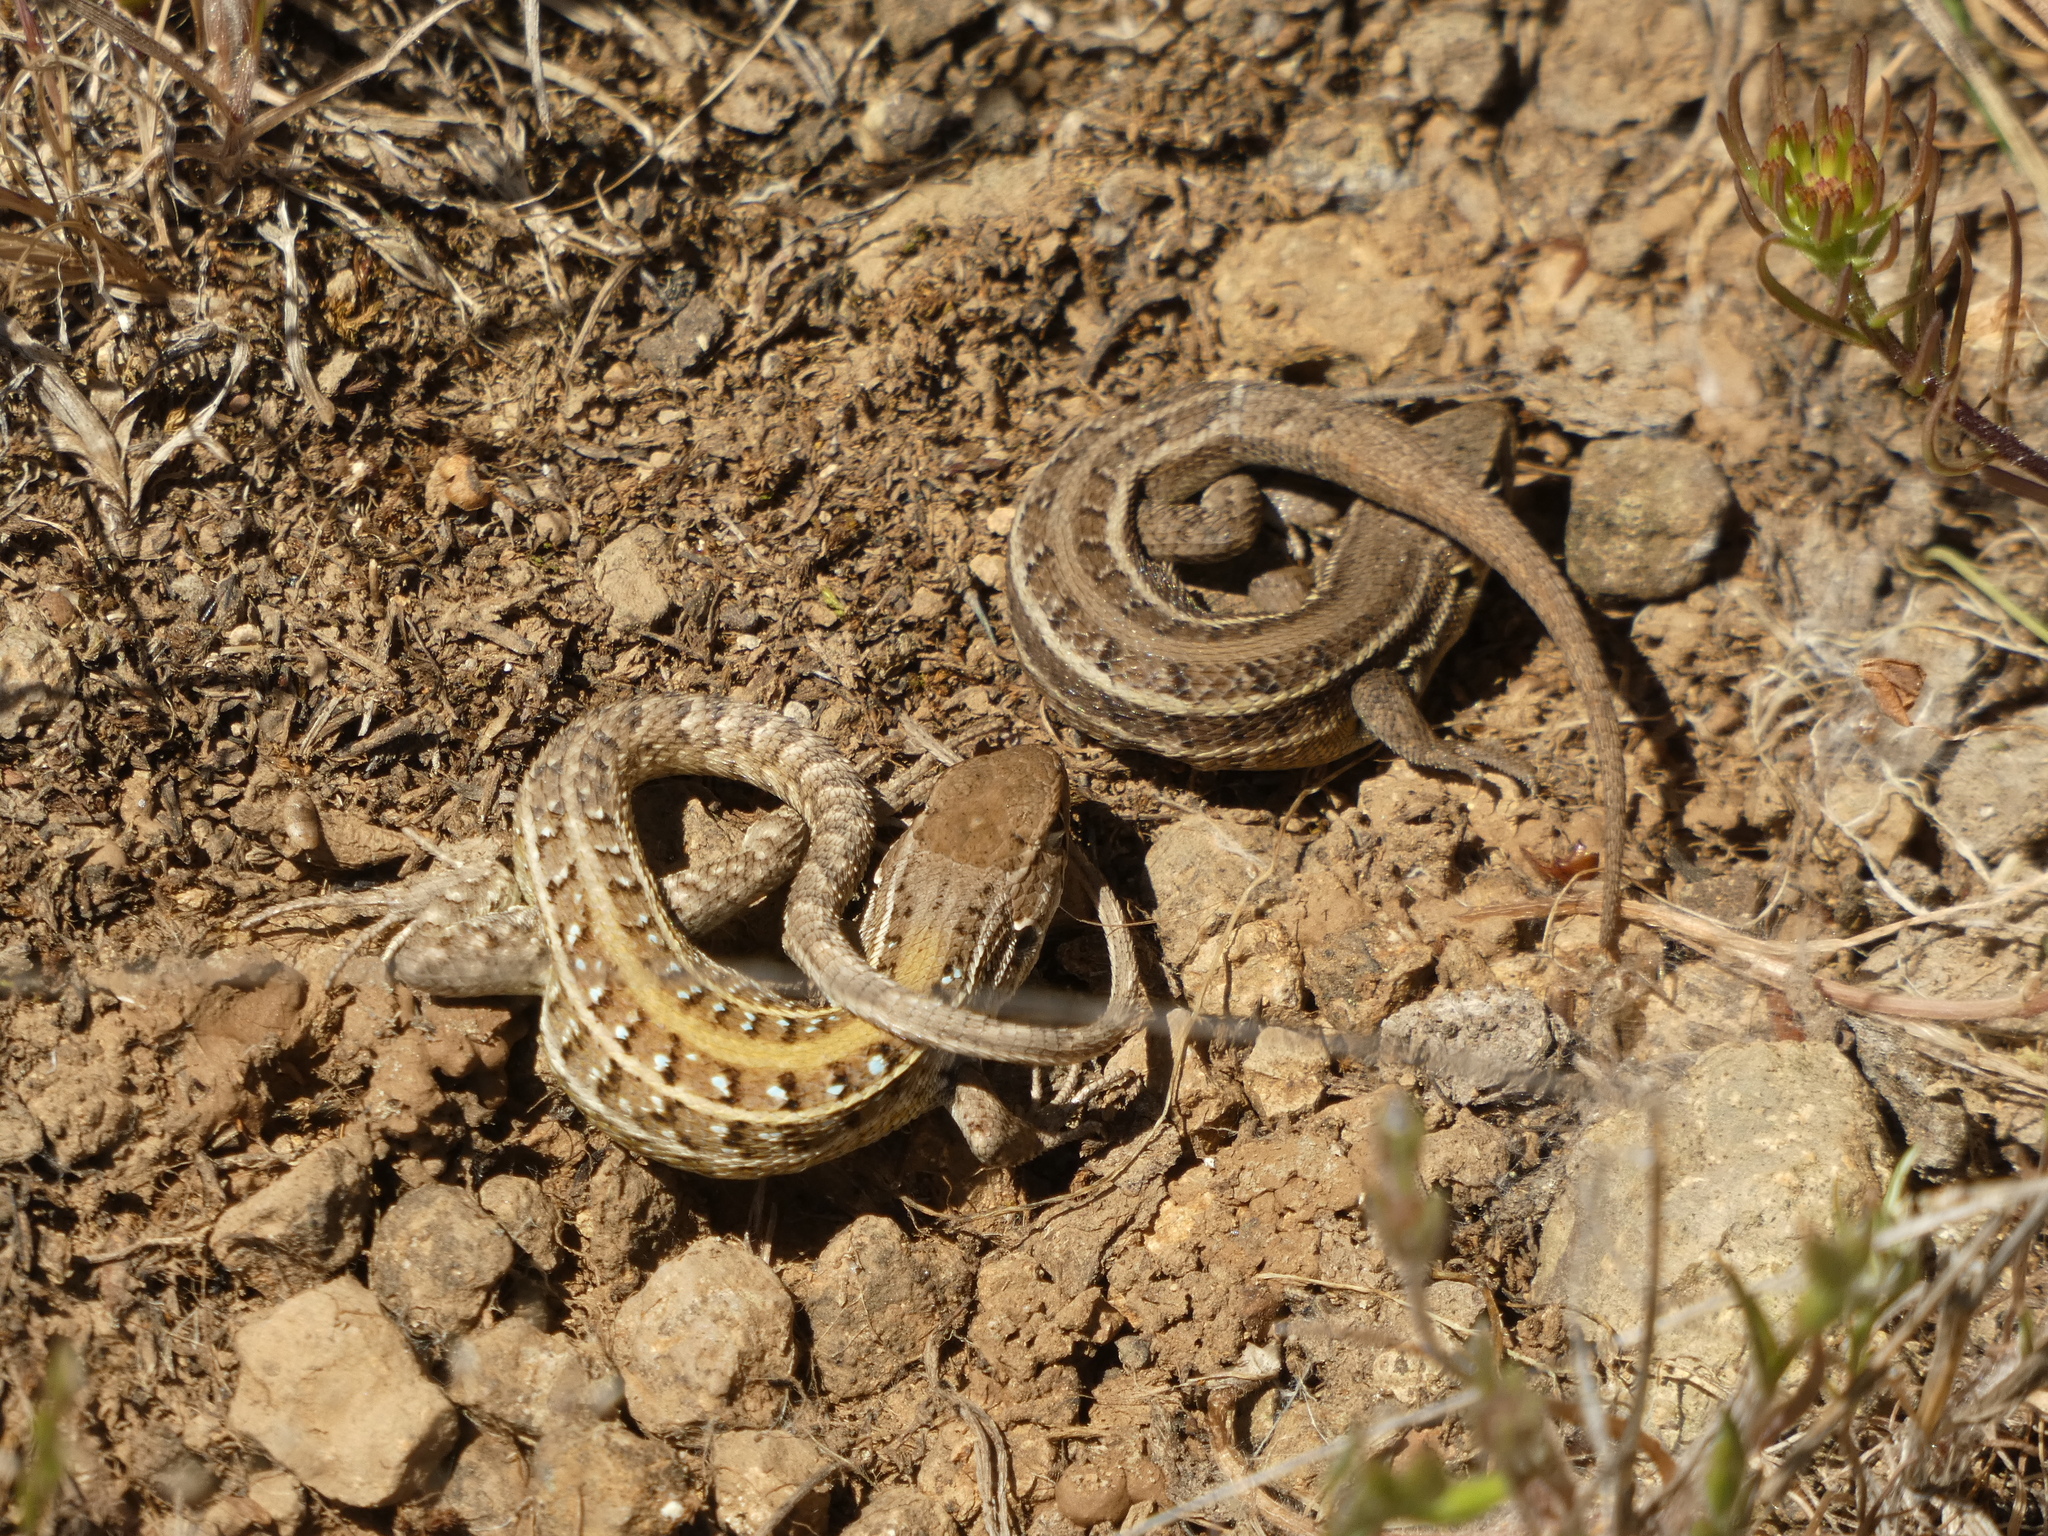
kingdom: Animalia
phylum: Chordata
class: Squamata
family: Liolaemidae
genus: Liolaemus
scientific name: Liolaemus lemniscatus
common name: Wreath tree iguana
